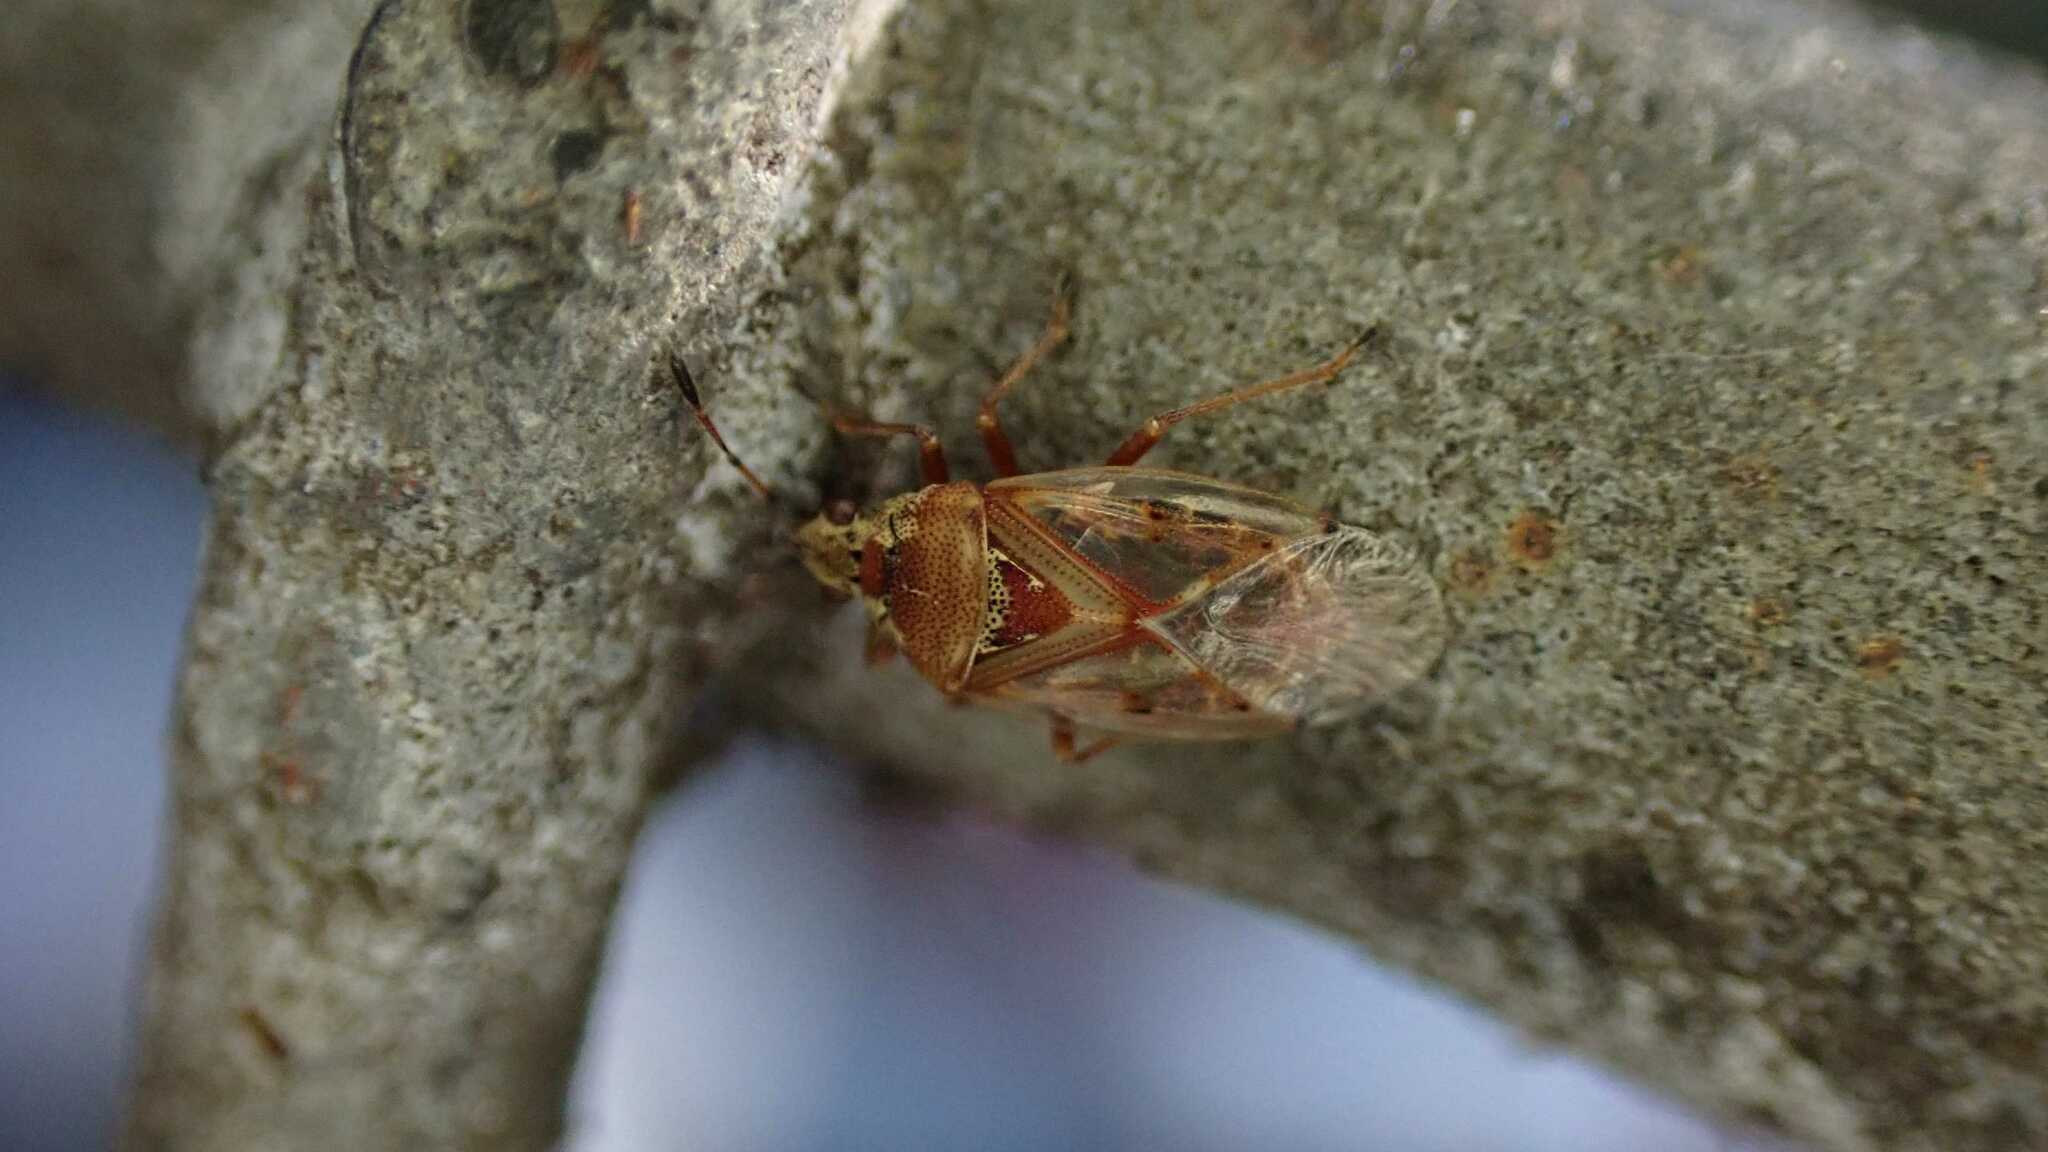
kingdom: Animalia
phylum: Arthropoda
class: Insecta
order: Hemiptera
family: Lygaeidae
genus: Kleidocerys
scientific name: Kleidocerys resedae
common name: Birch catkin bug
